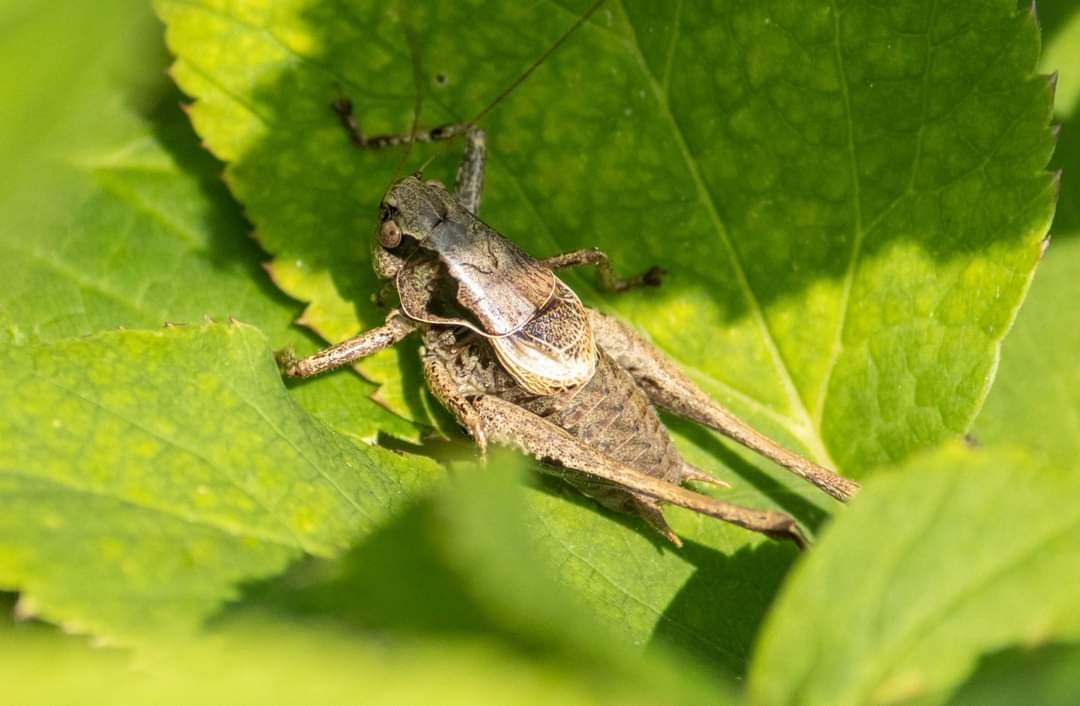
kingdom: Animalia
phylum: Arthropoda
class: Insecta
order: Orthoptera
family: Tettigoniidae
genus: Pholidoptera
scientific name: Pholidoptera griseoaptera
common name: Dark bush-cricket
